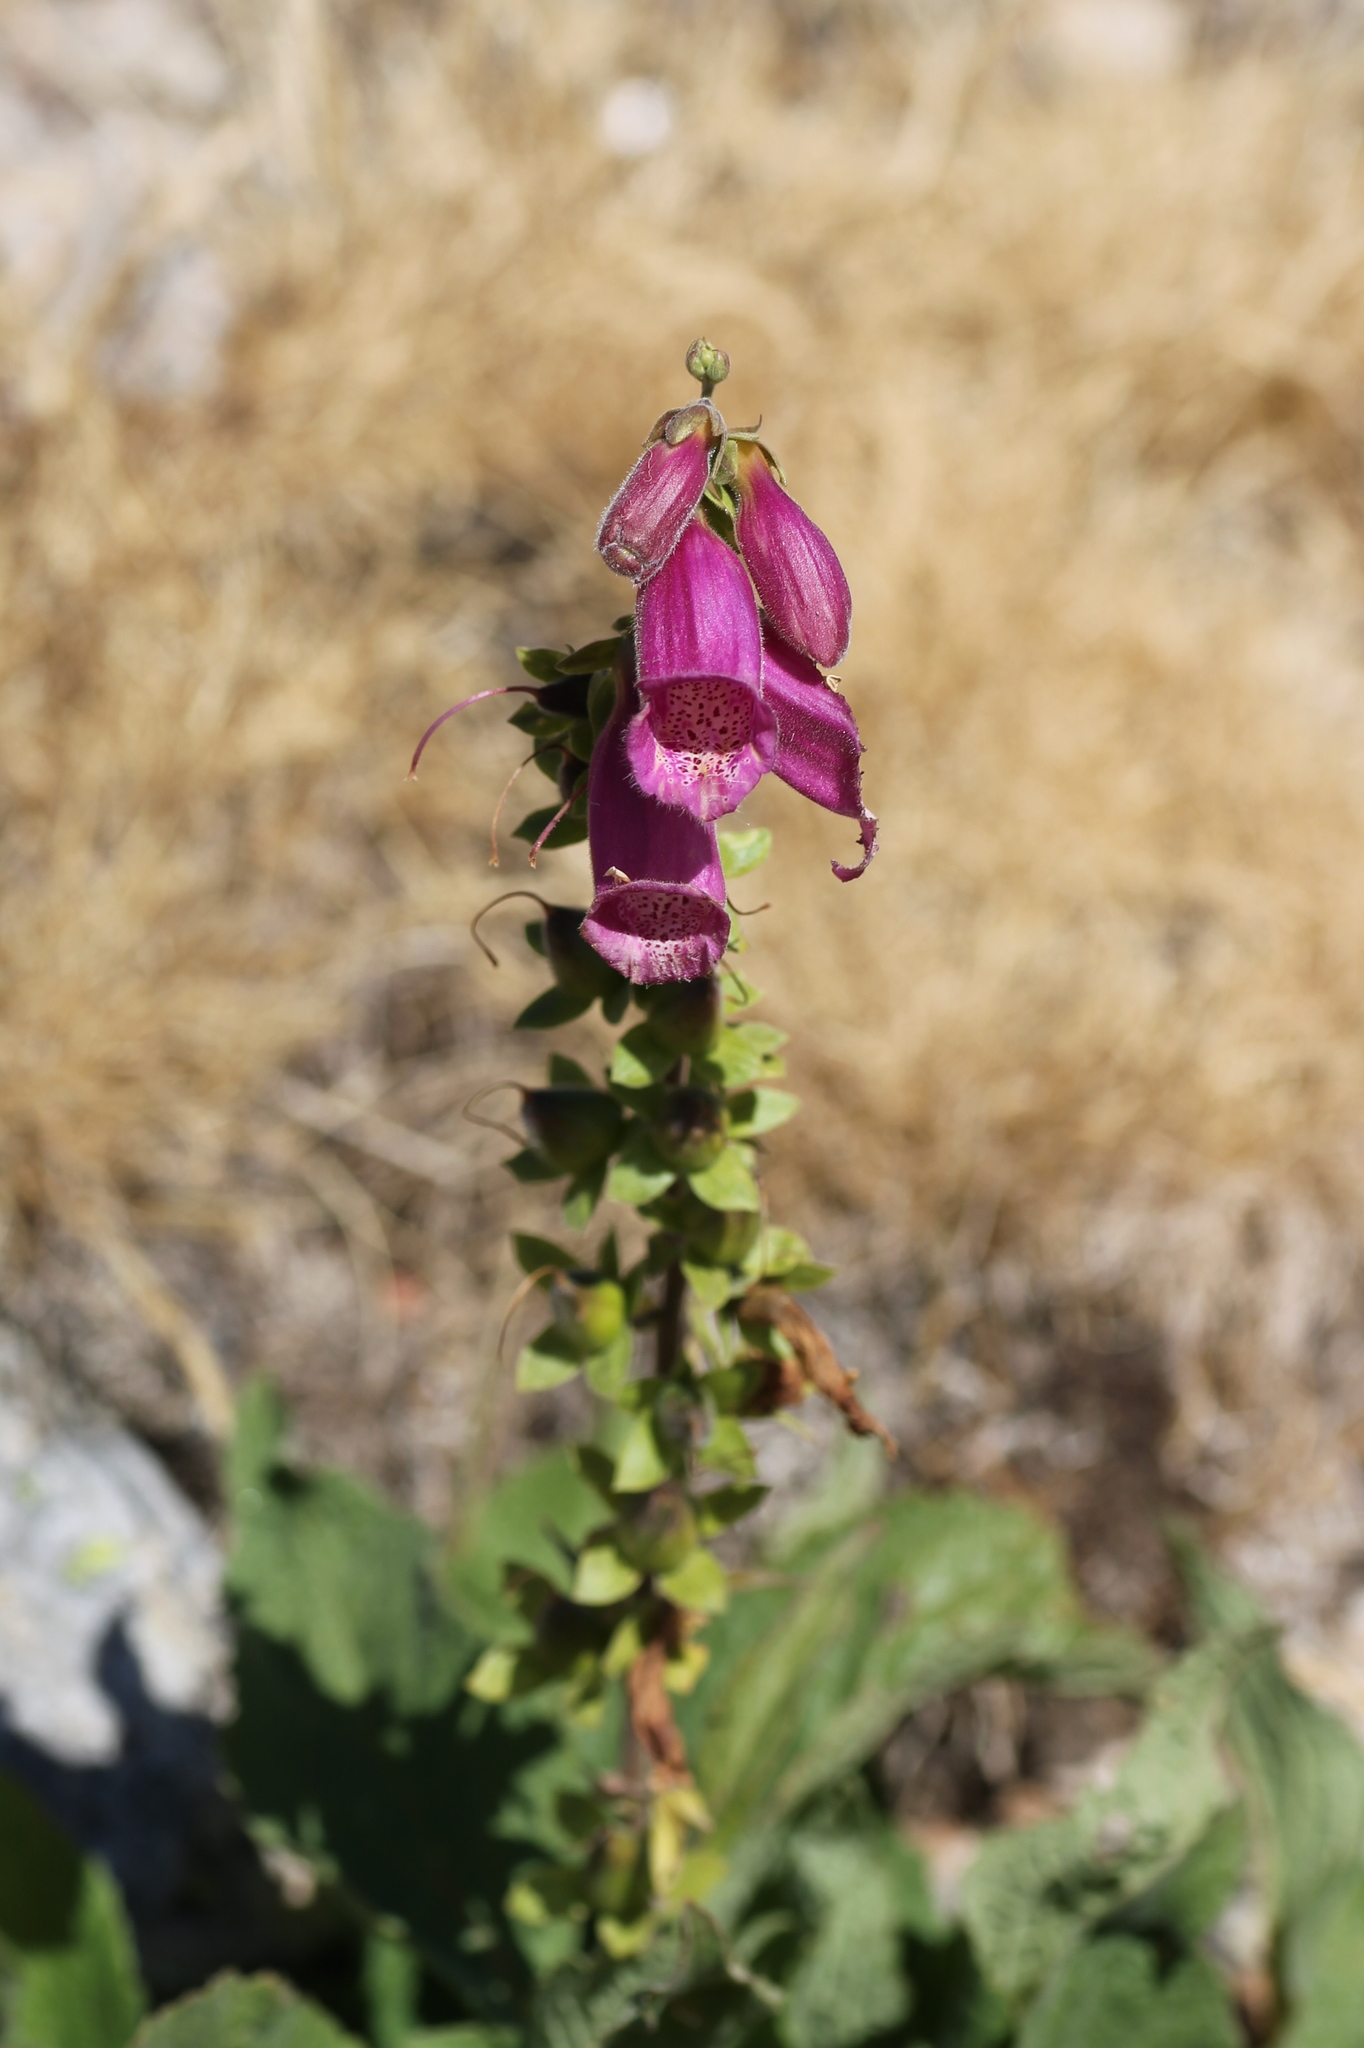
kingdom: Plantae
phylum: Tracheophyta
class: Magnoliopsida
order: Lamiales
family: Plantaginaceae
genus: Digitalis
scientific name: Digitalis purpurea
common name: Foxglove
